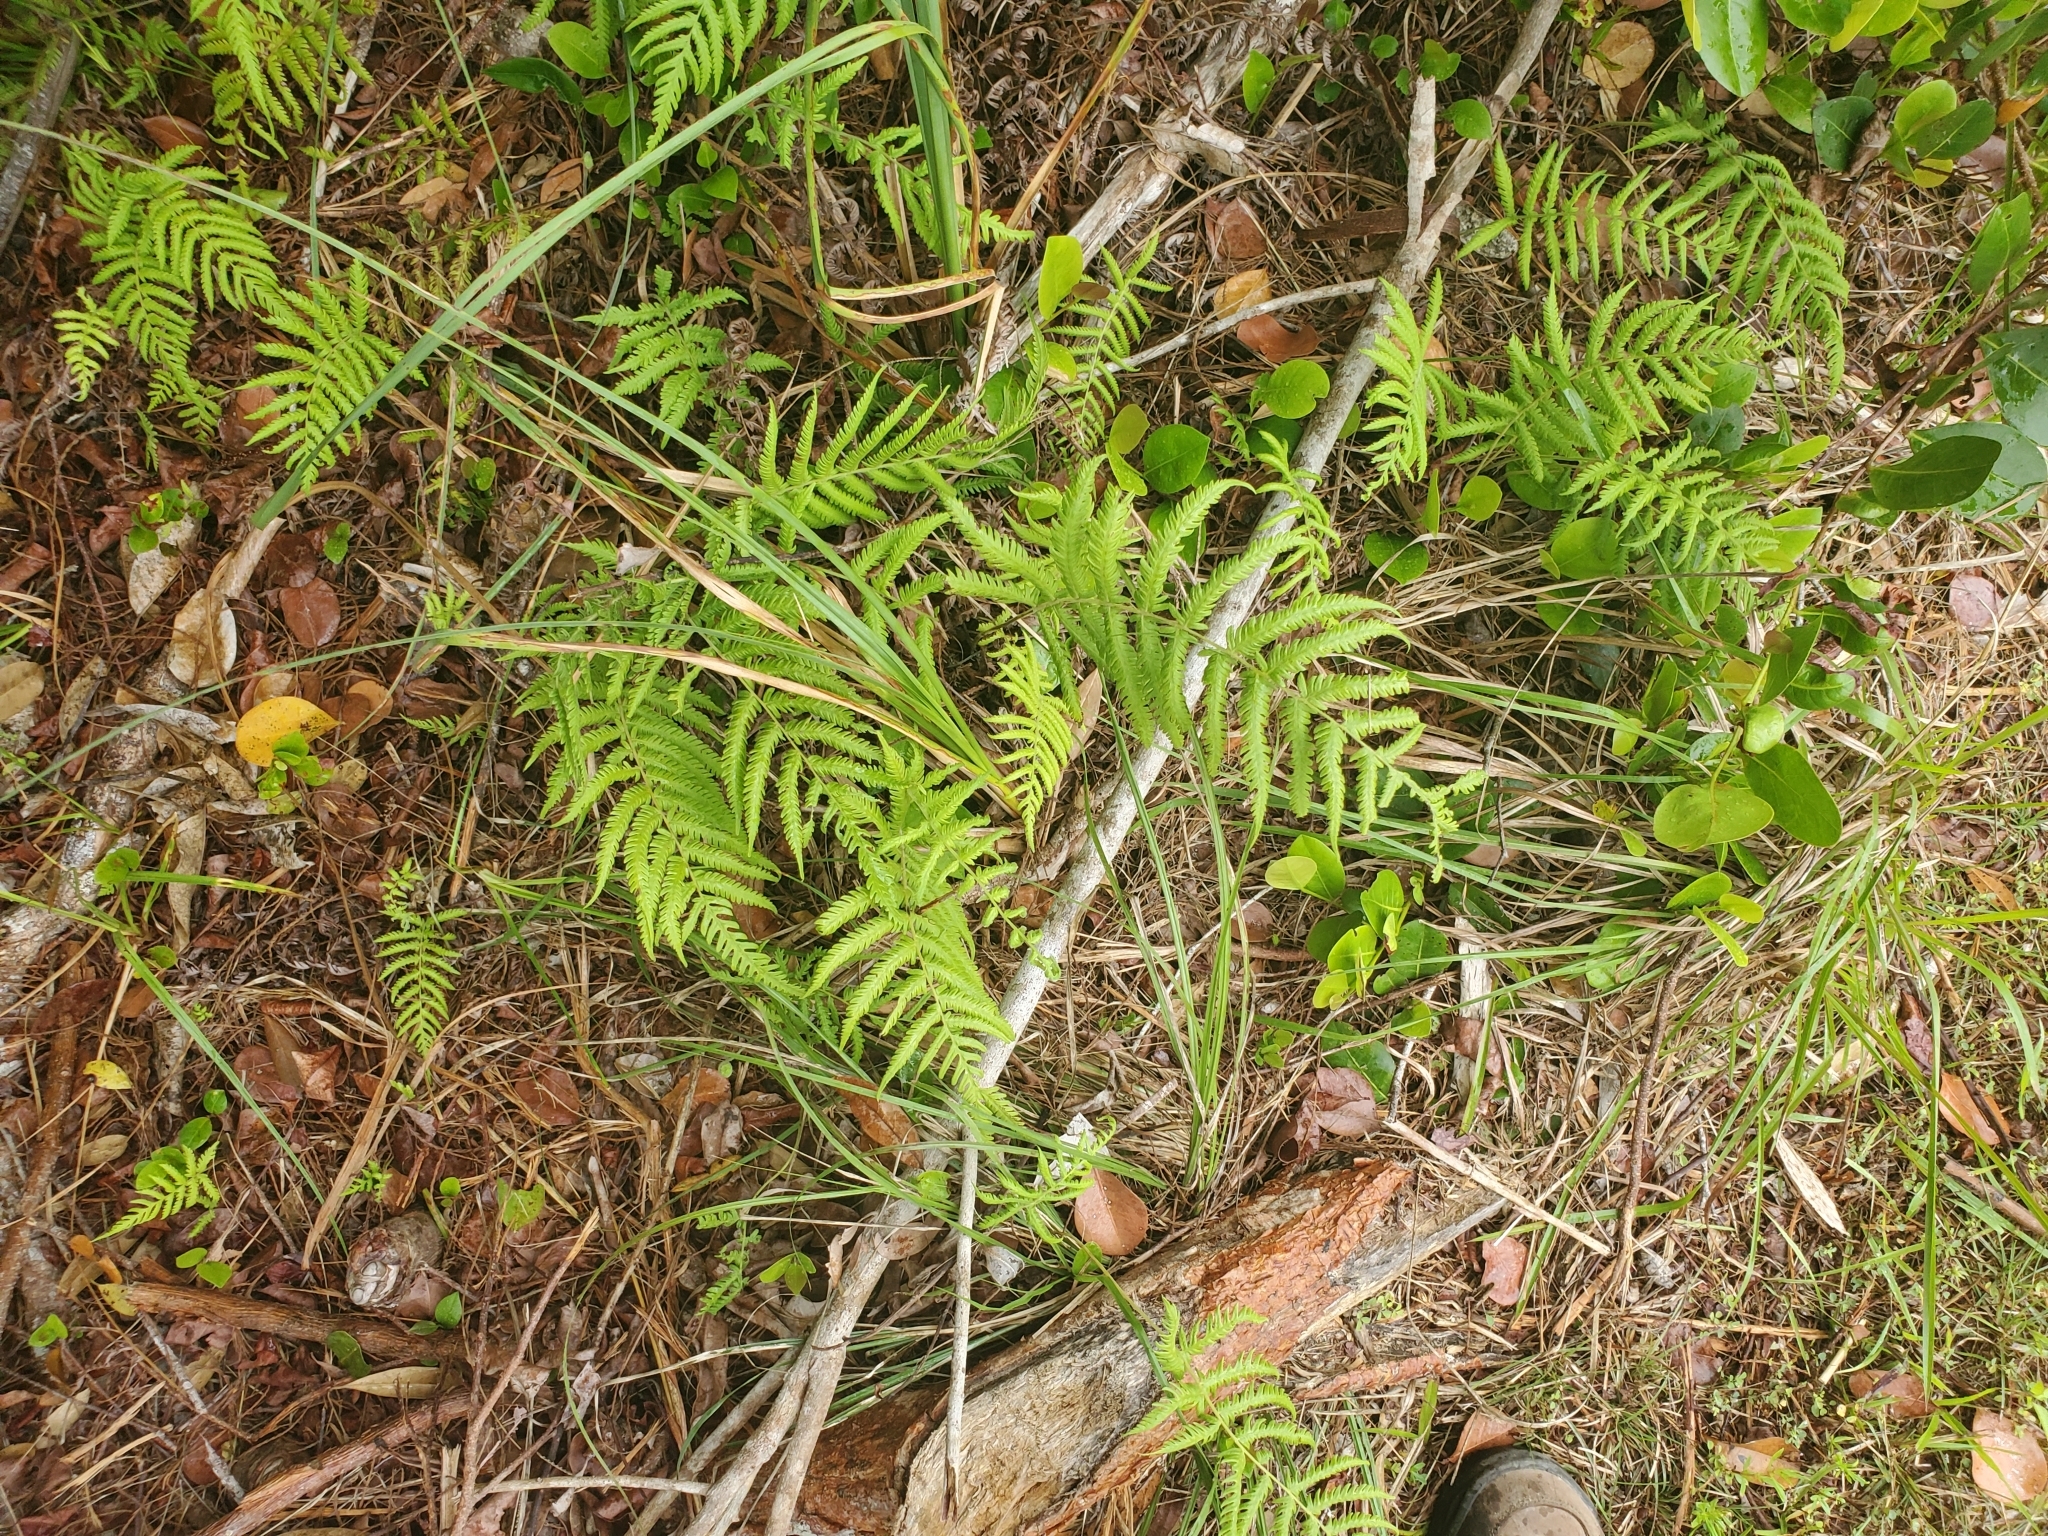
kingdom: Plantae
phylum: Tracheophyta
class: Polypodiopsida
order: Polypodiales
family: Thelypteridaceae
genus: Pelazoneuron
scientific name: Pelazoneuron kunthii
